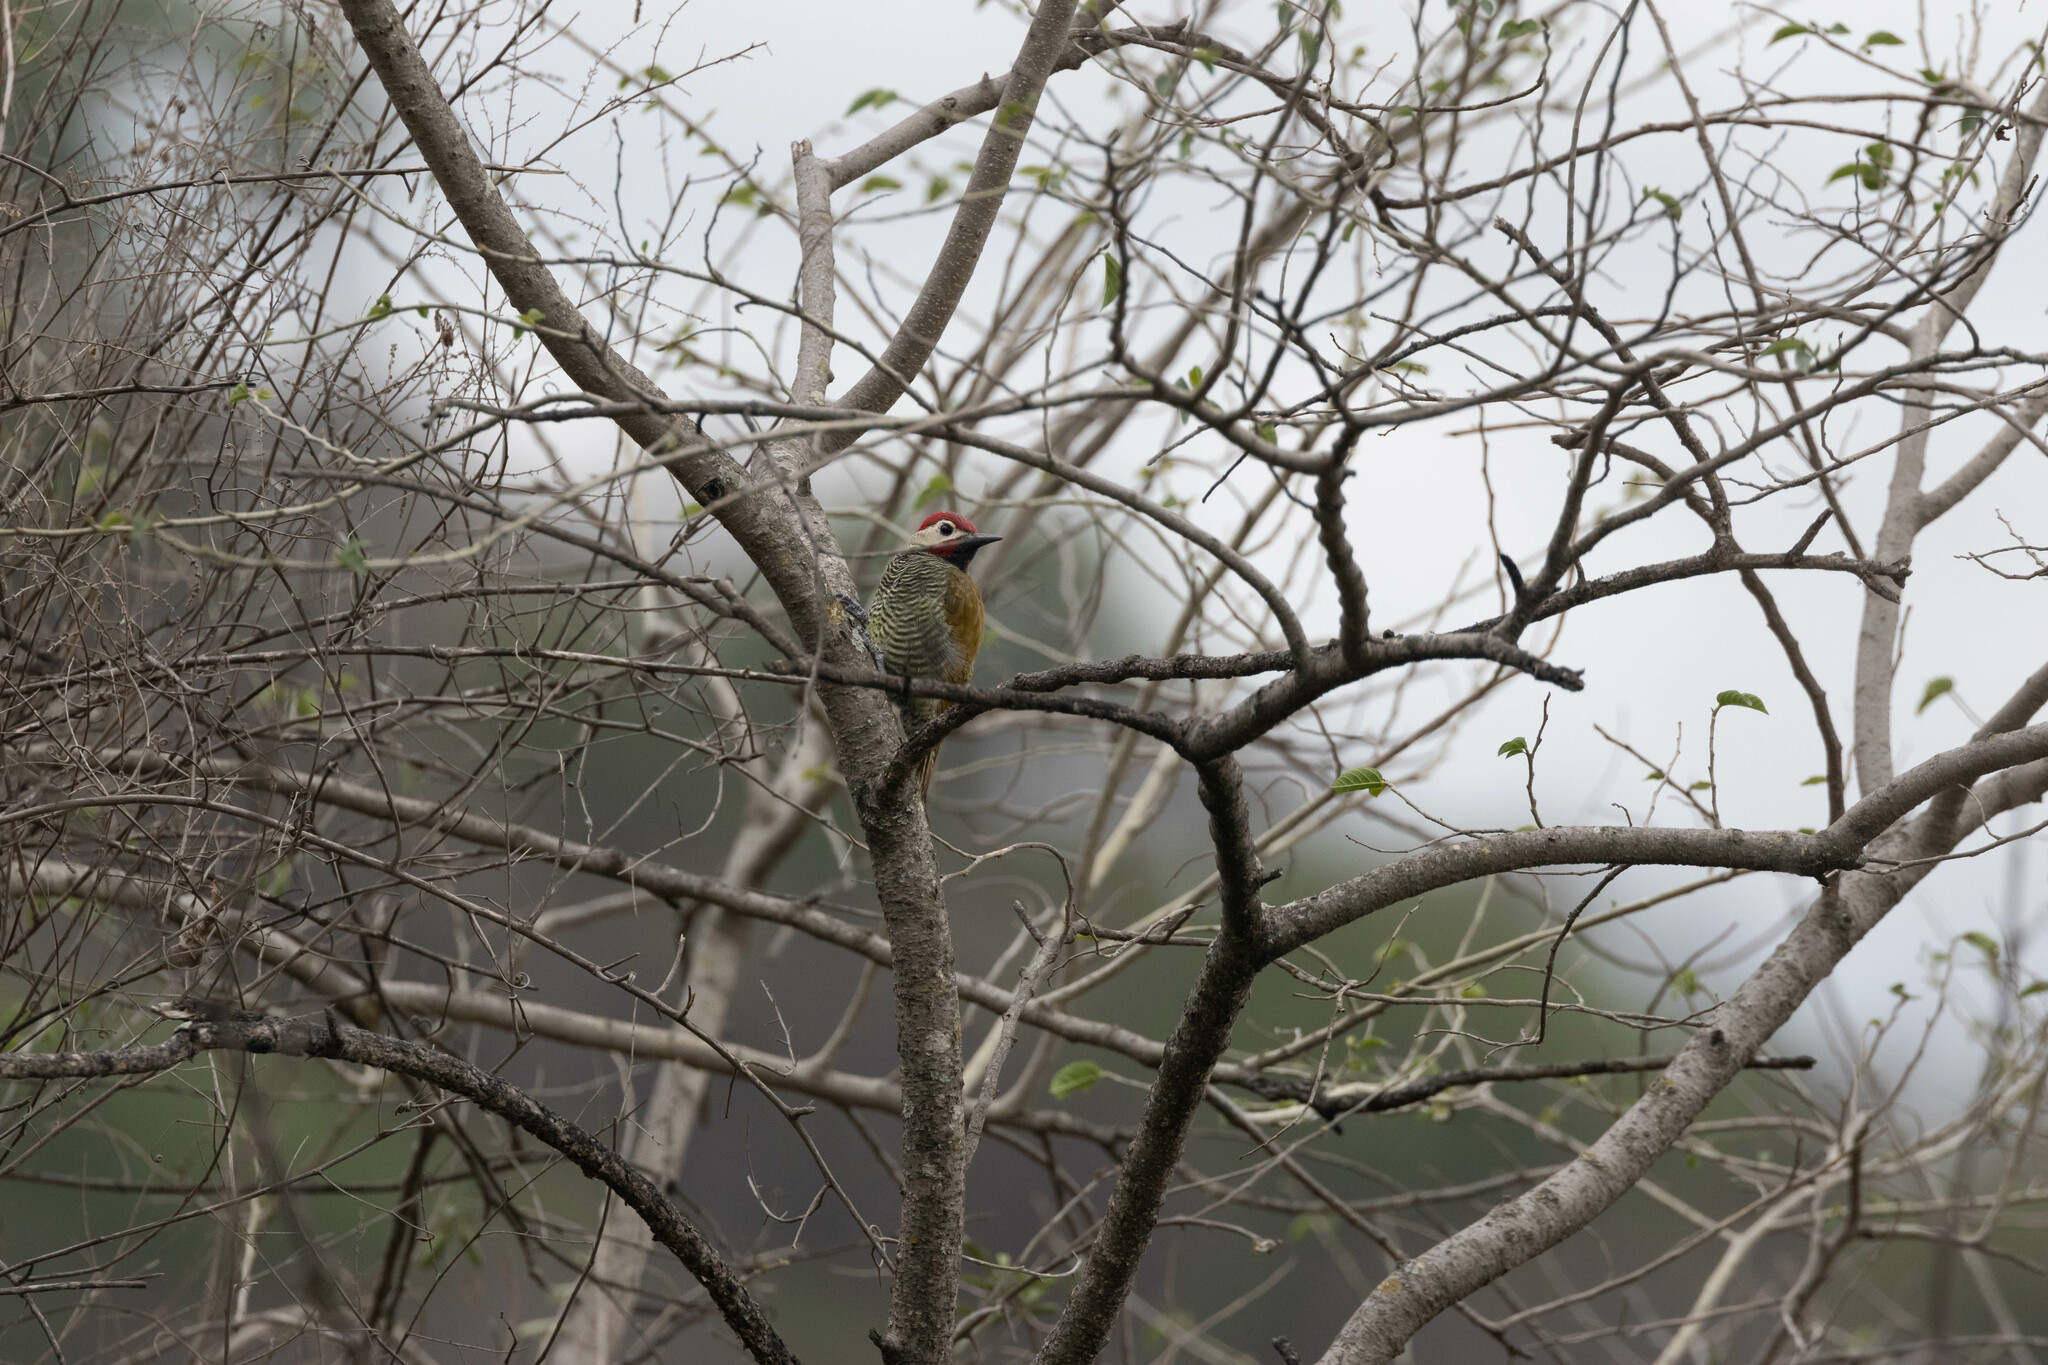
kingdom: Animalia
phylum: Chordata
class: Aves
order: Piciformes
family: Picidae
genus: Colaptes
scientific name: Colaptes rubiginosus
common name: Golden-olive woodpecker
